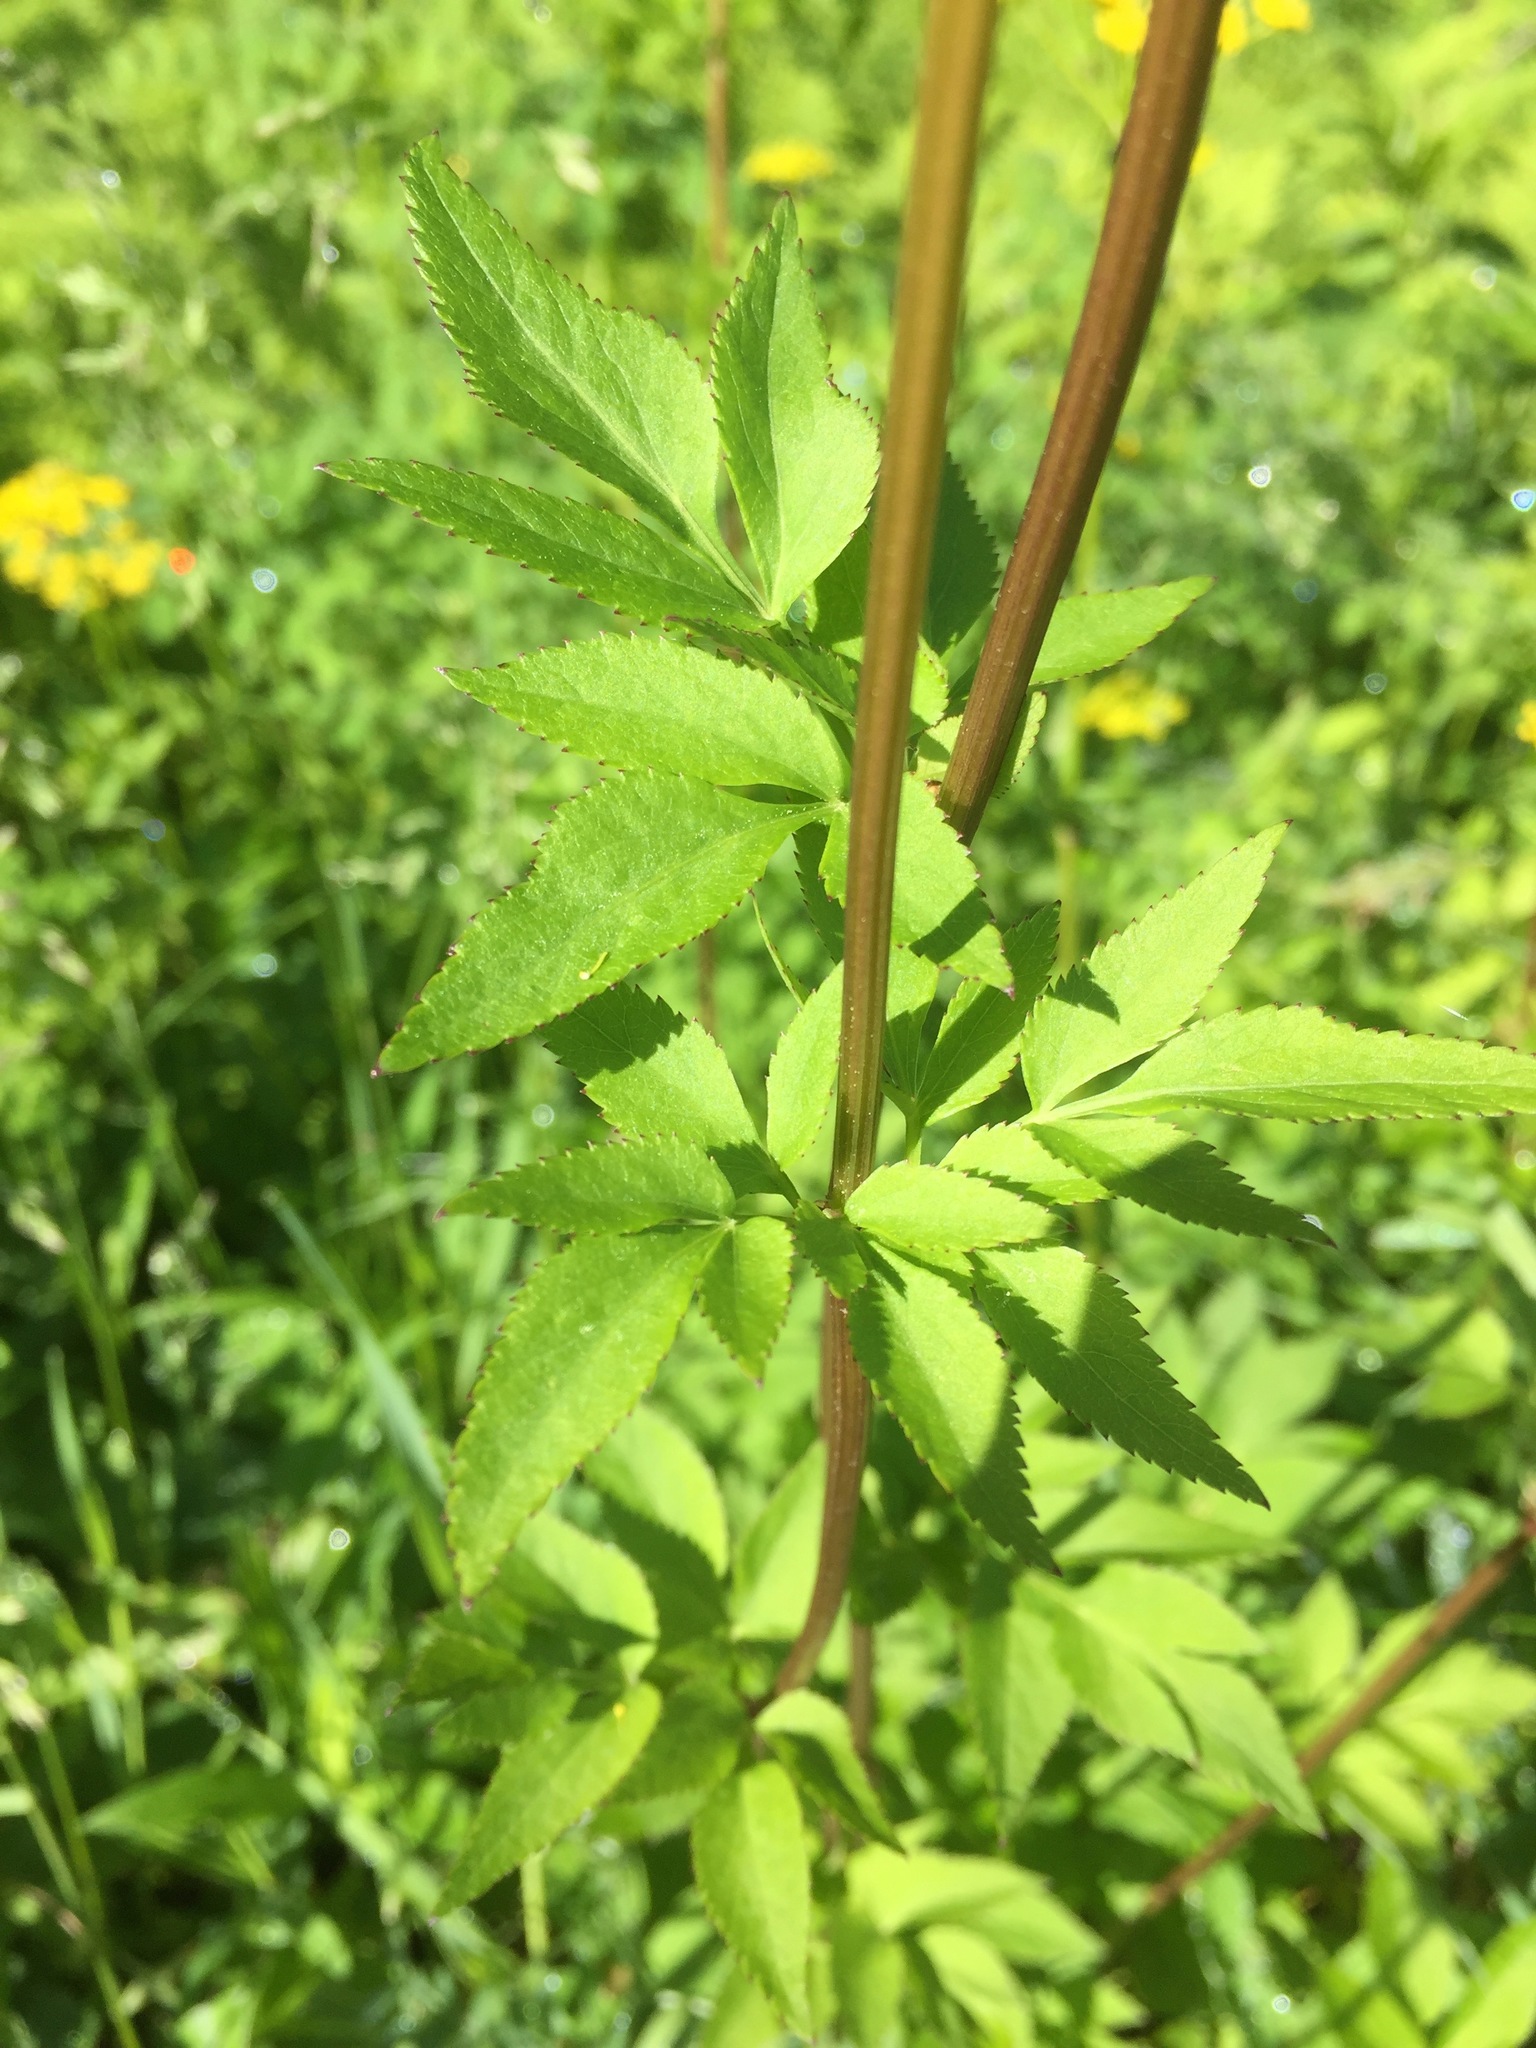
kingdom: Plantae
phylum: Tracheophyta
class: Magnoliopsida
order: Apiales
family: Apiaceae
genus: Zizia
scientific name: Zizia aurea
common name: Golden alexanders
